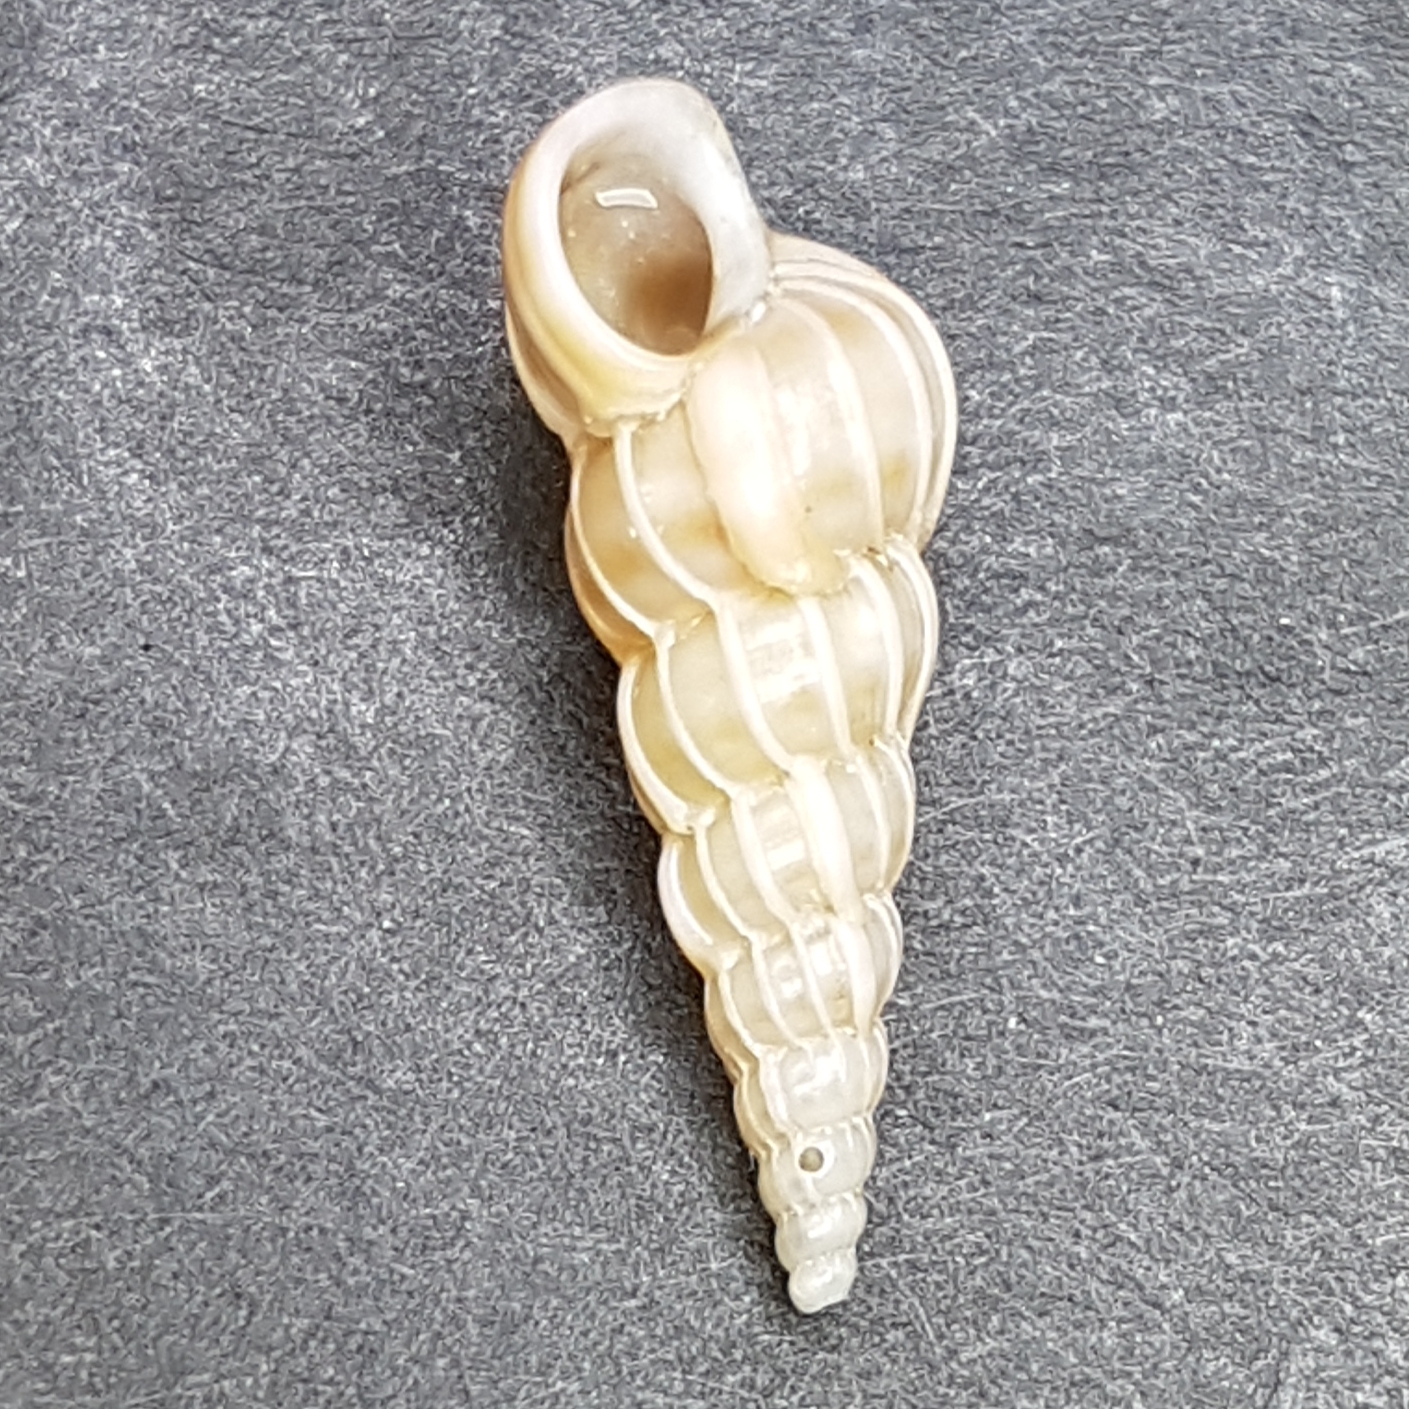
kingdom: Animalia
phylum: Mollusca
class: Gastropoda
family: Epitoniidae
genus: Epitonium
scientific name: Epitonium turtonis
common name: Turton's wentletrap
